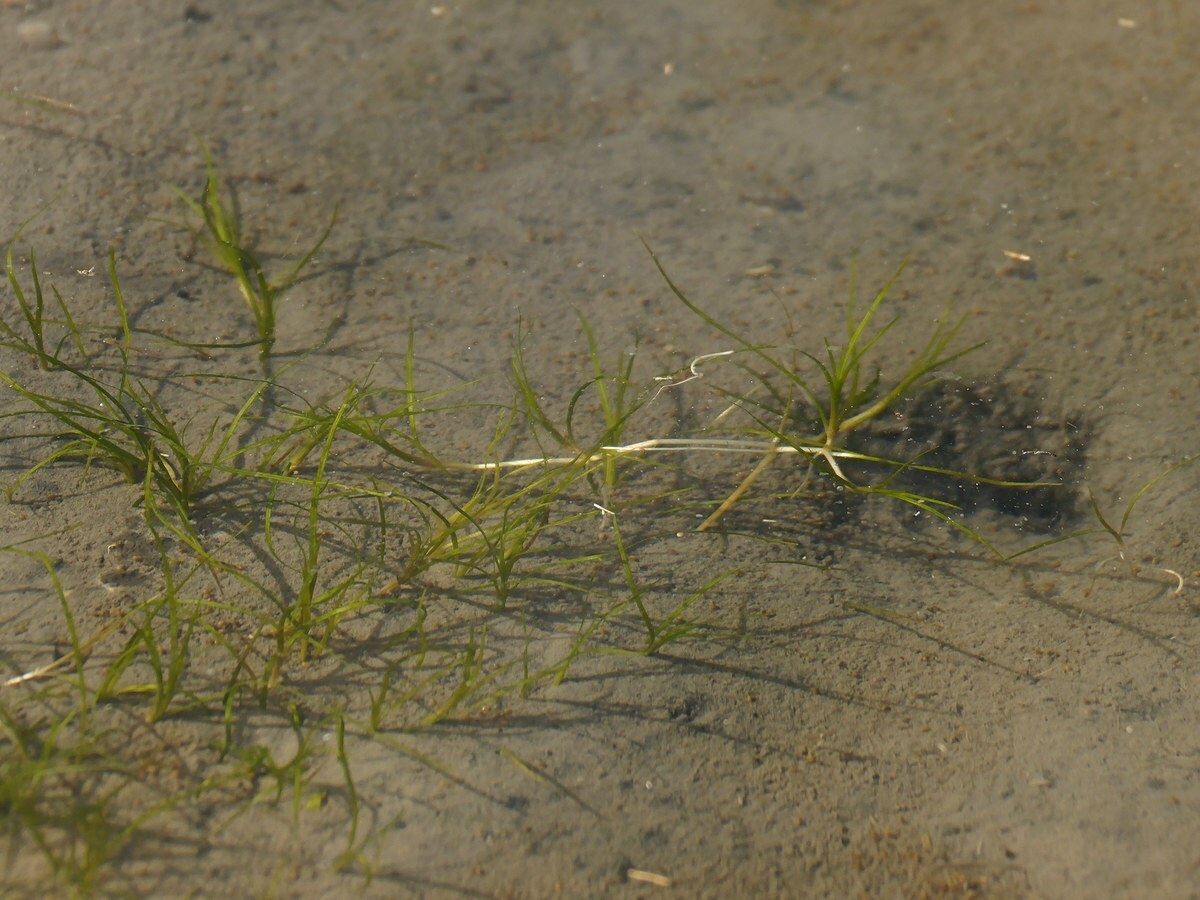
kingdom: Plantae
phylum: Tracheophyta
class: Liliopsida
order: Alismatales
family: Potamogetonaceae
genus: Zannichellia
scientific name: Zannichellia palustris
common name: Horned pondweed
